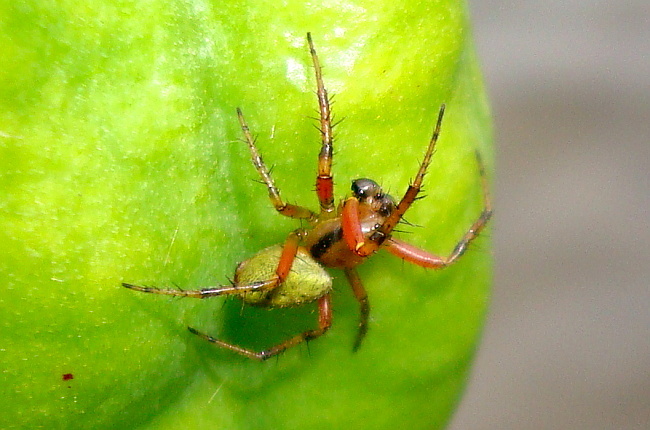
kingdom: Animalia
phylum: Arthropoda
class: Arachnida
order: Araneae
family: Araneidae
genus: Araniella
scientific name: Araniella proxima
